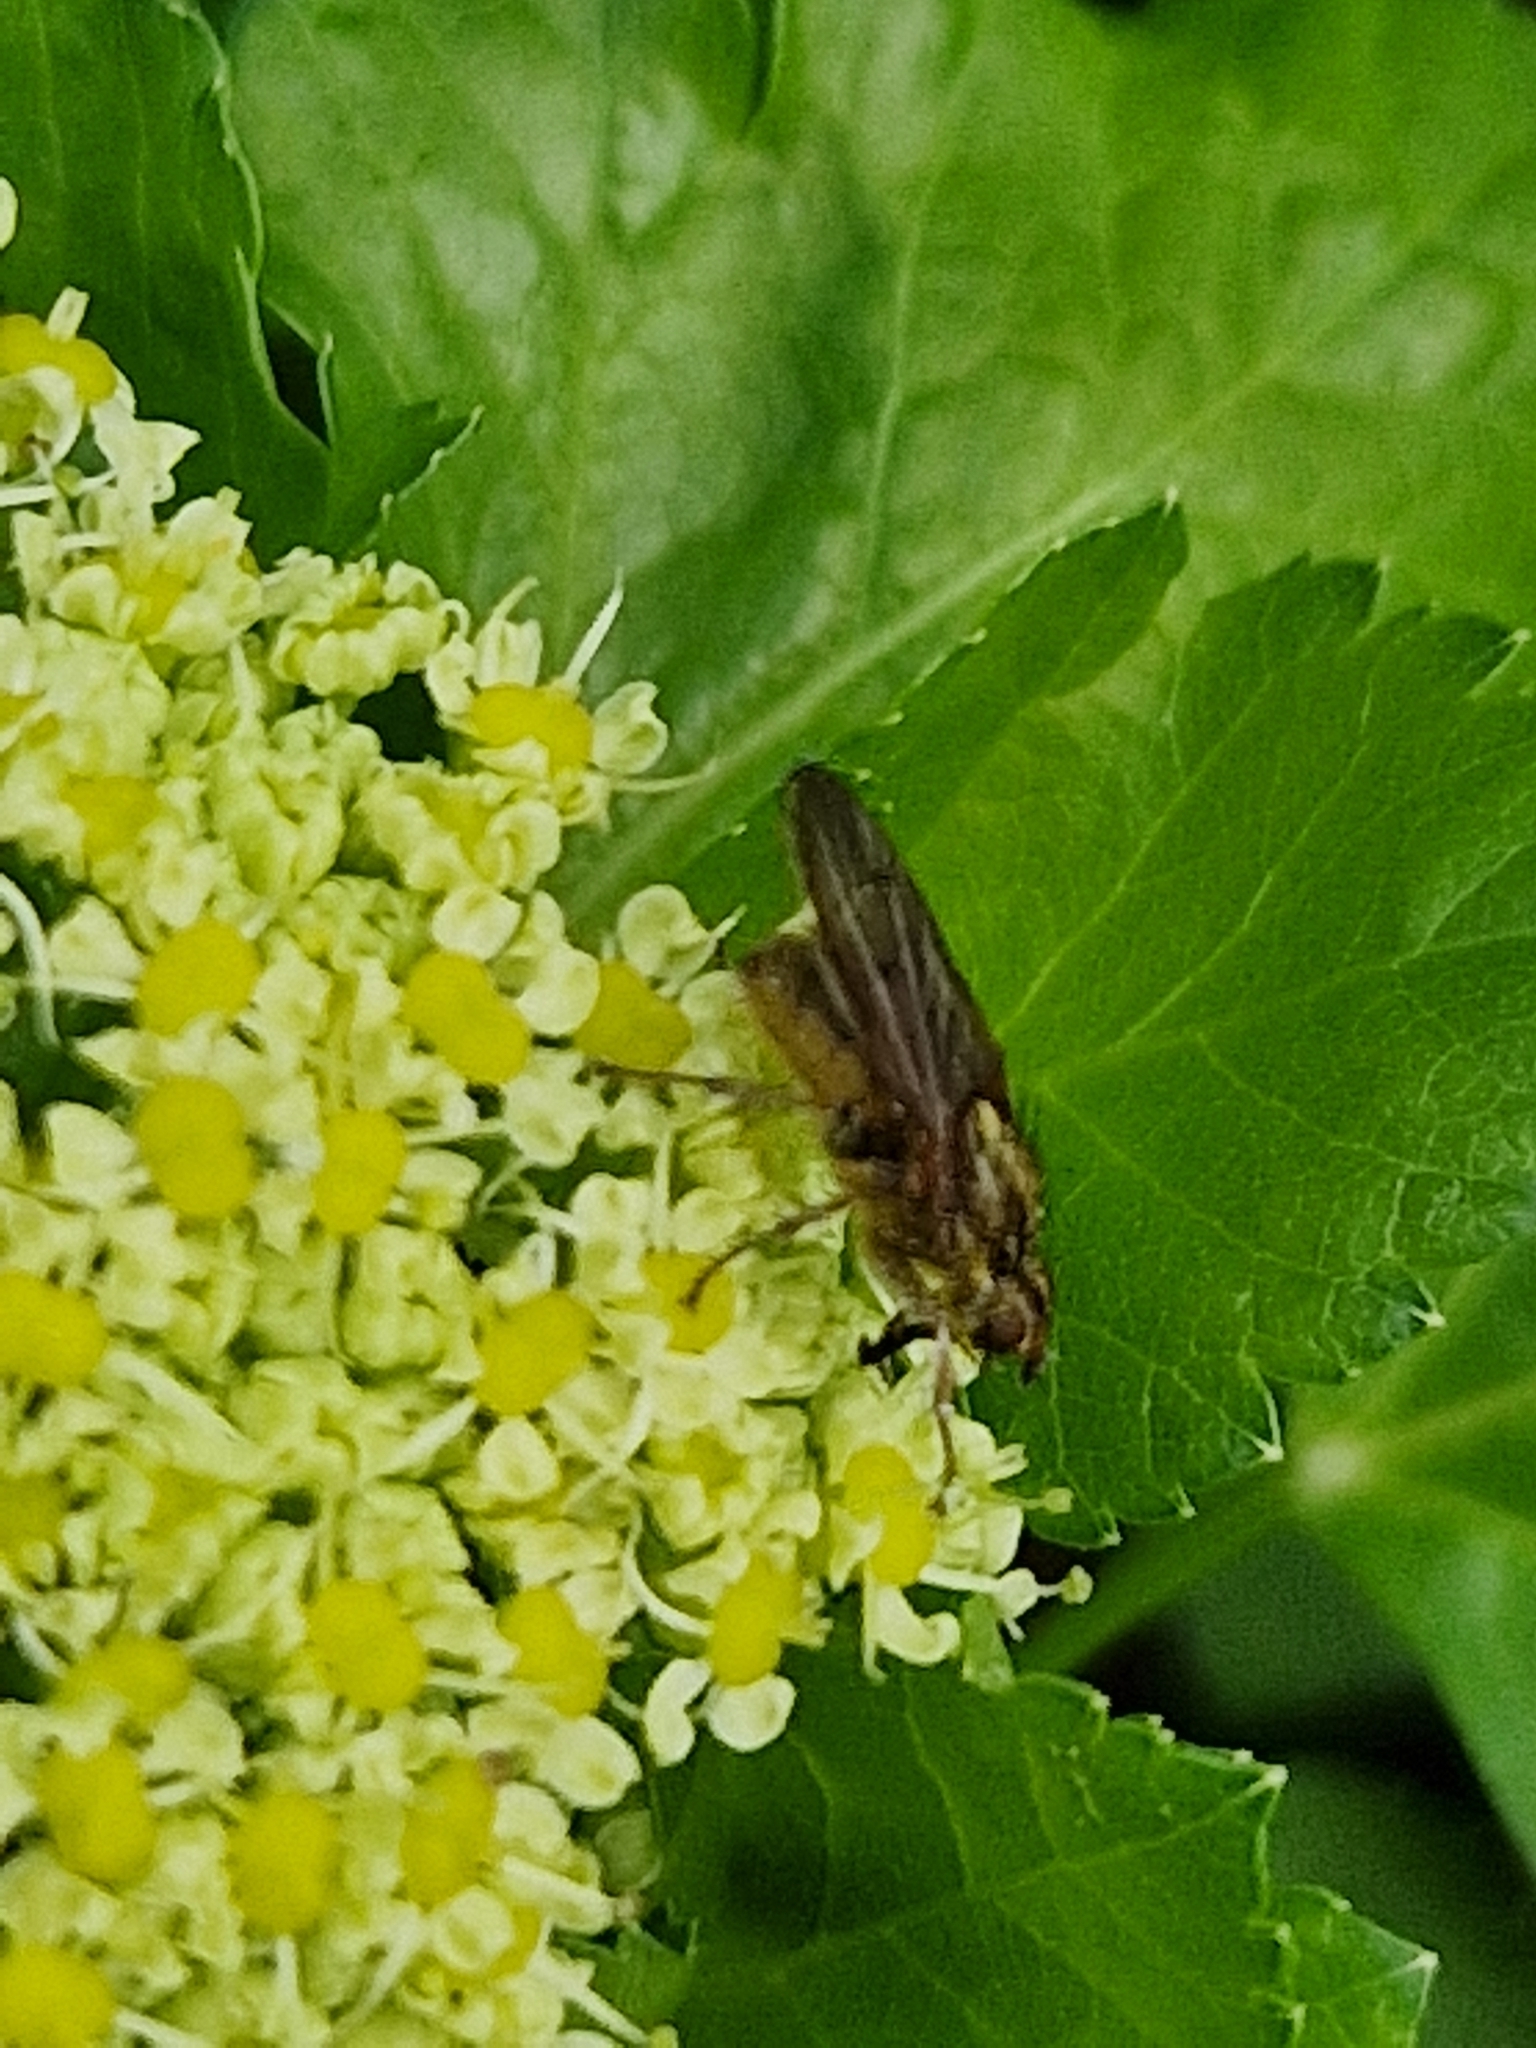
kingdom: Animalia
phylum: Arthropoda
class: Insecta
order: Diptera
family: Scathophagidae
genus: Scathophaga
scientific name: Scathophaga stercoraria
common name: Yellow dung fly
